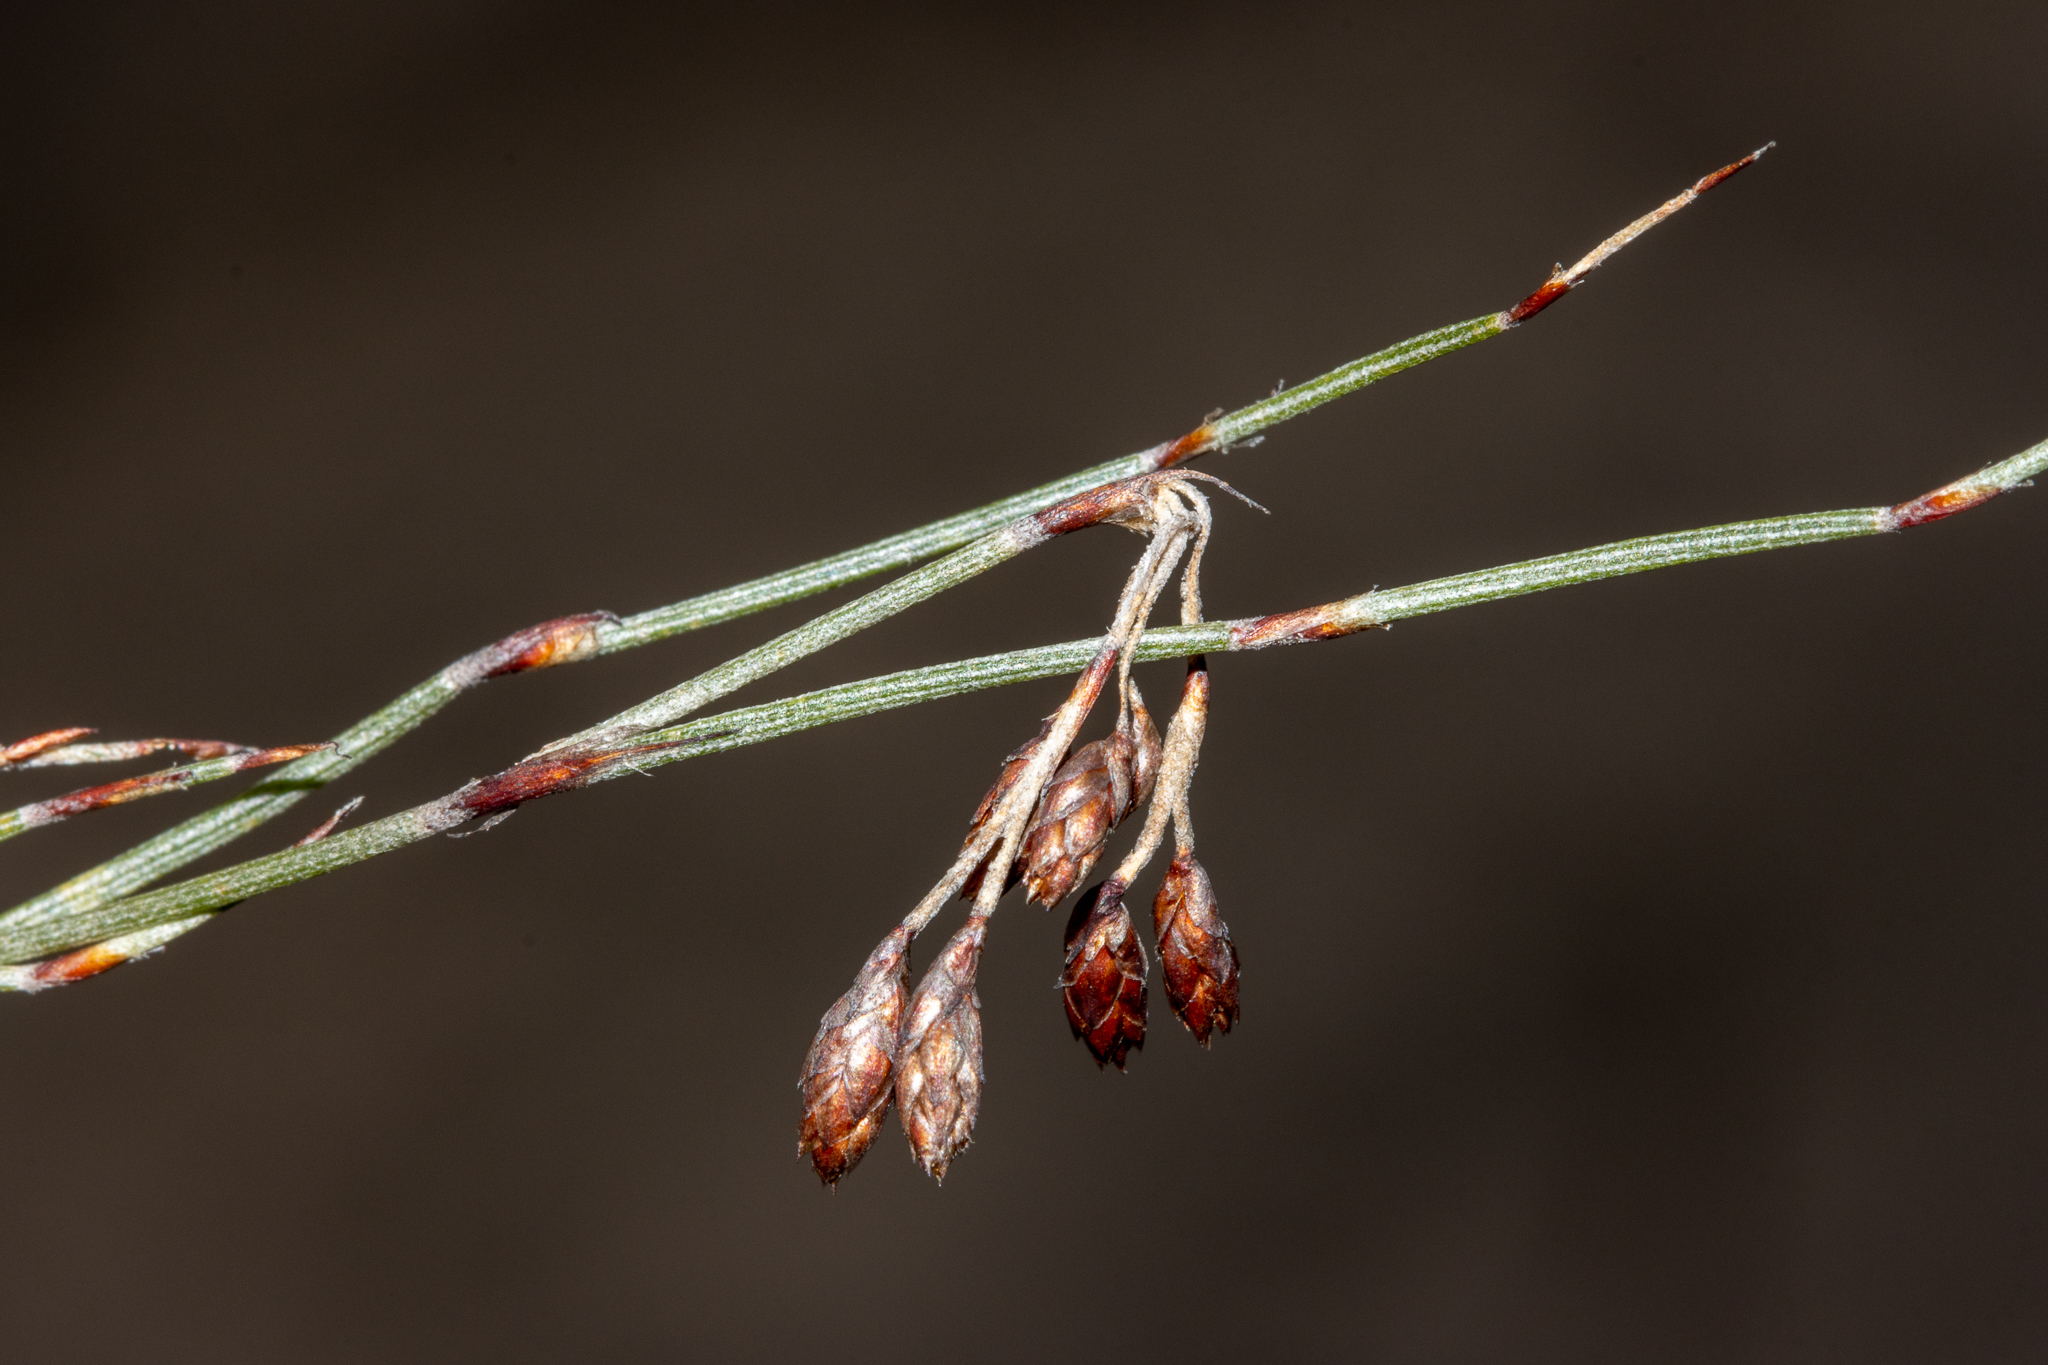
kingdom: Plantae
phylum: Tracheophyta
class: Liliopsida
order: Poales
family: Restionaceae
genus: Hypolaena
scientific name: Hypolaena fastigiata
